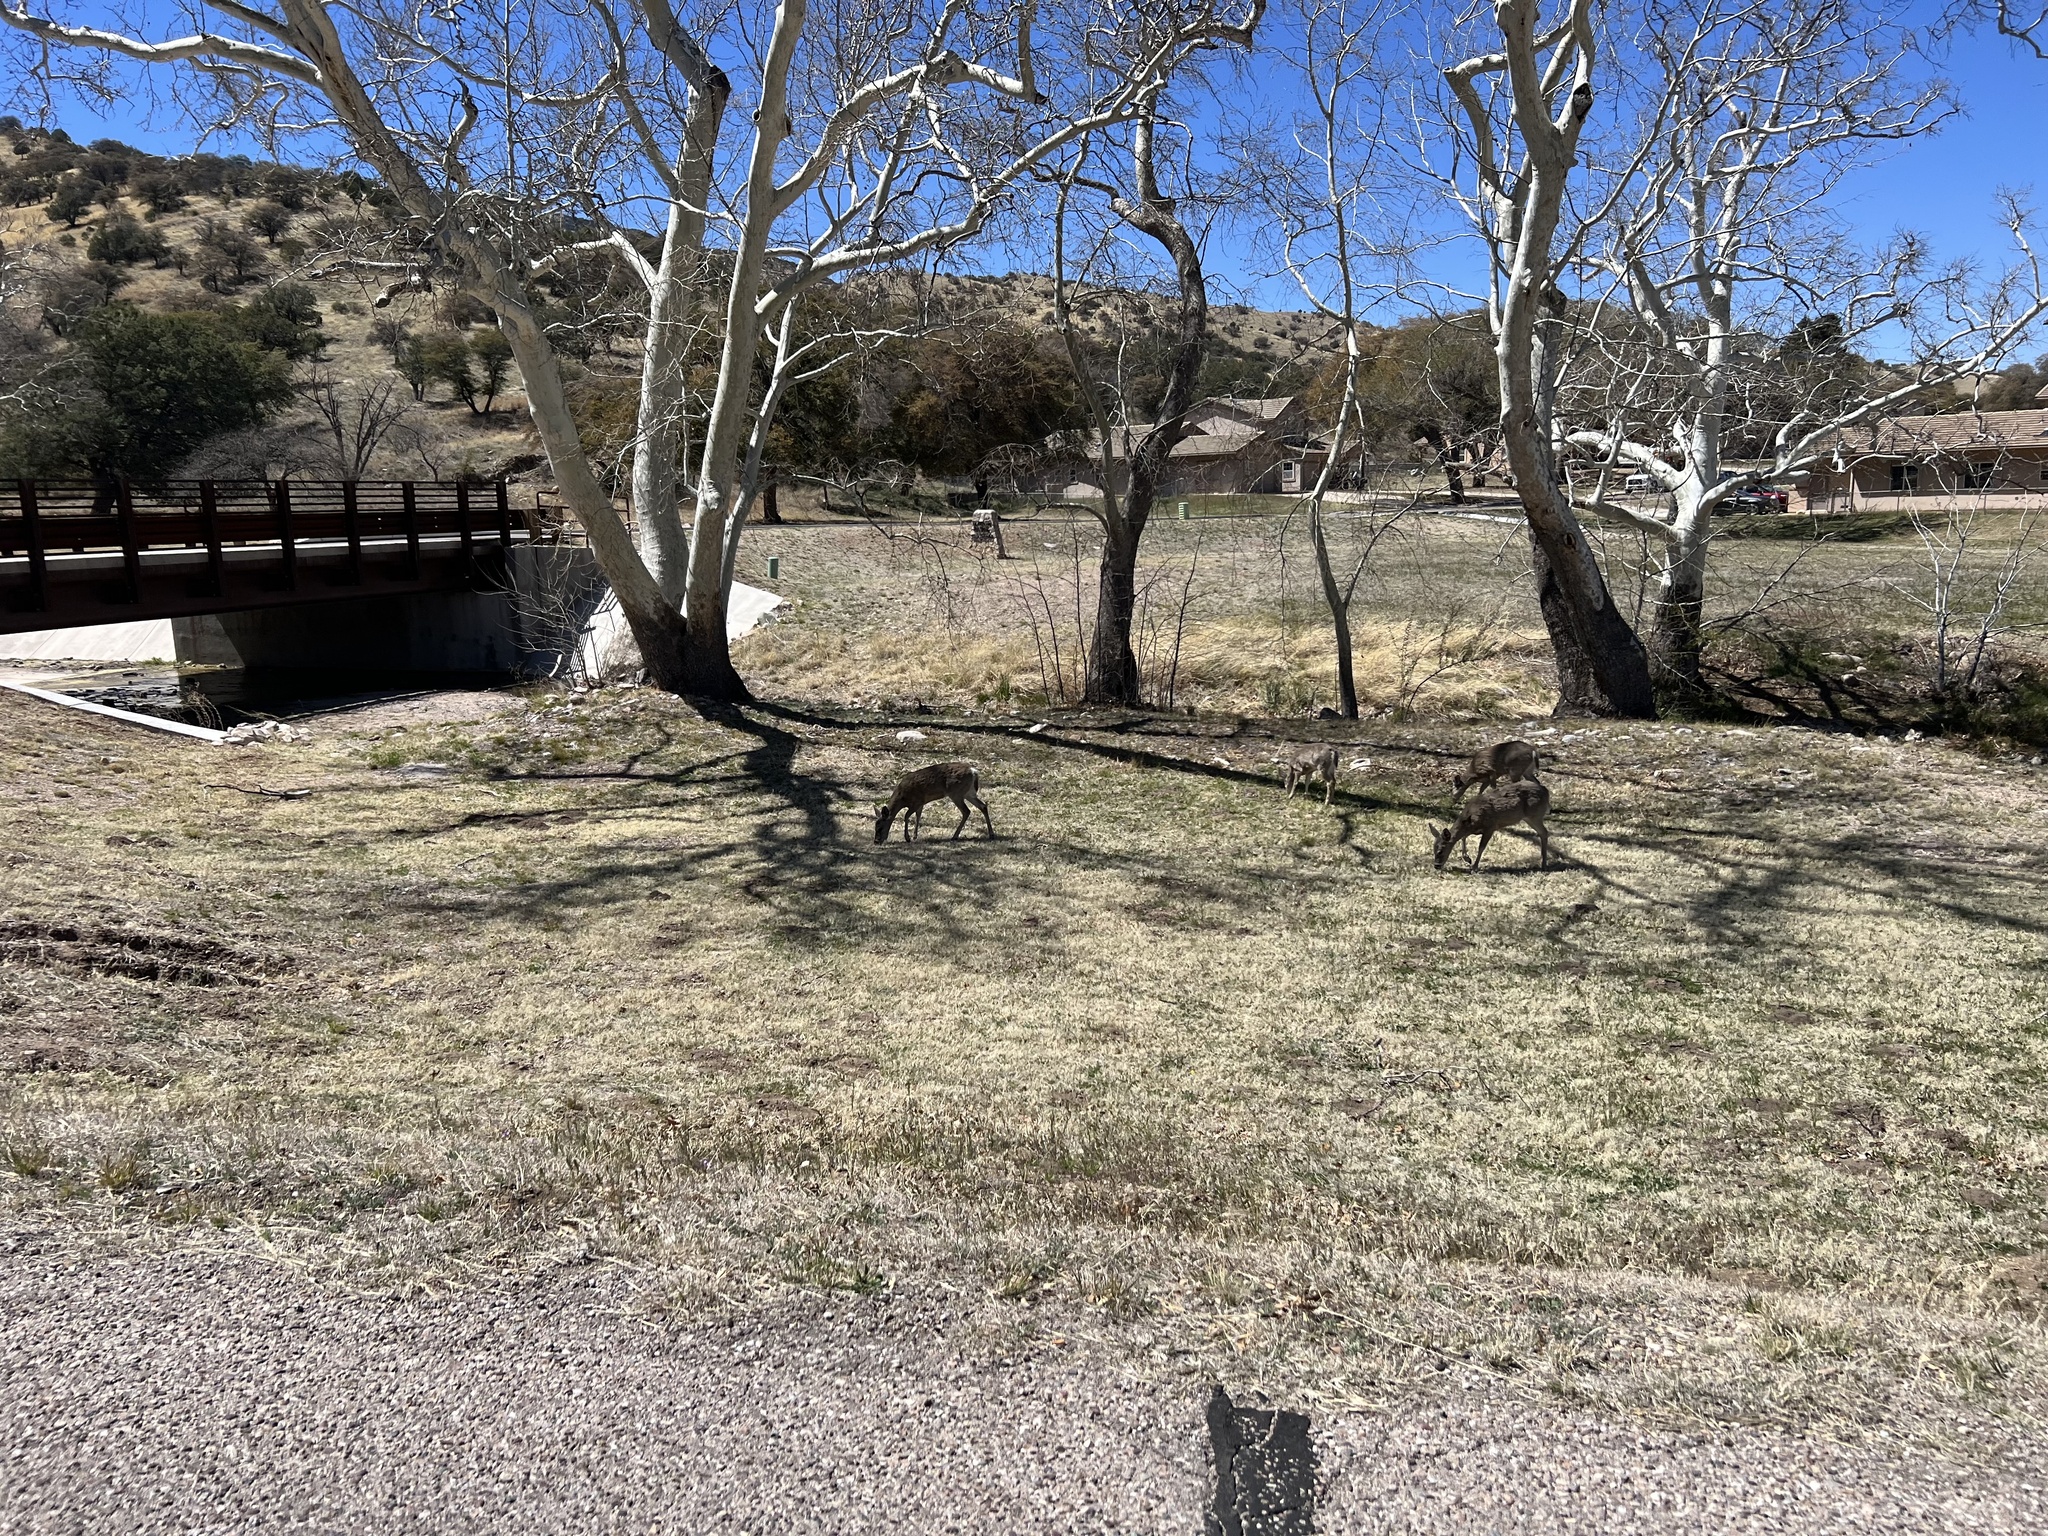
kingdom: Animalia
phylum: Chordata
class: Mammalia
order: Artiodactyla
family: Cervidae
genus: Odocoileus
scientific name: Odocoileus virginianus
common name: White-tailed deer
